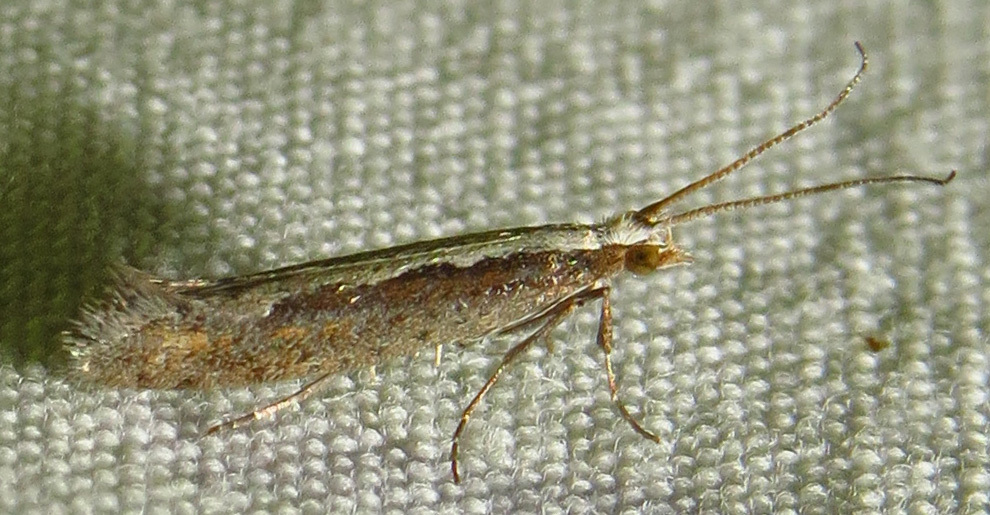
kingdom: Animalia
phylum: Arthropoda
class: Insecta
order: Lepidoptera
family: Plutellidae
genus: Plutella
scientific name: Plutella xylostella
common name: Diamond-back moth
